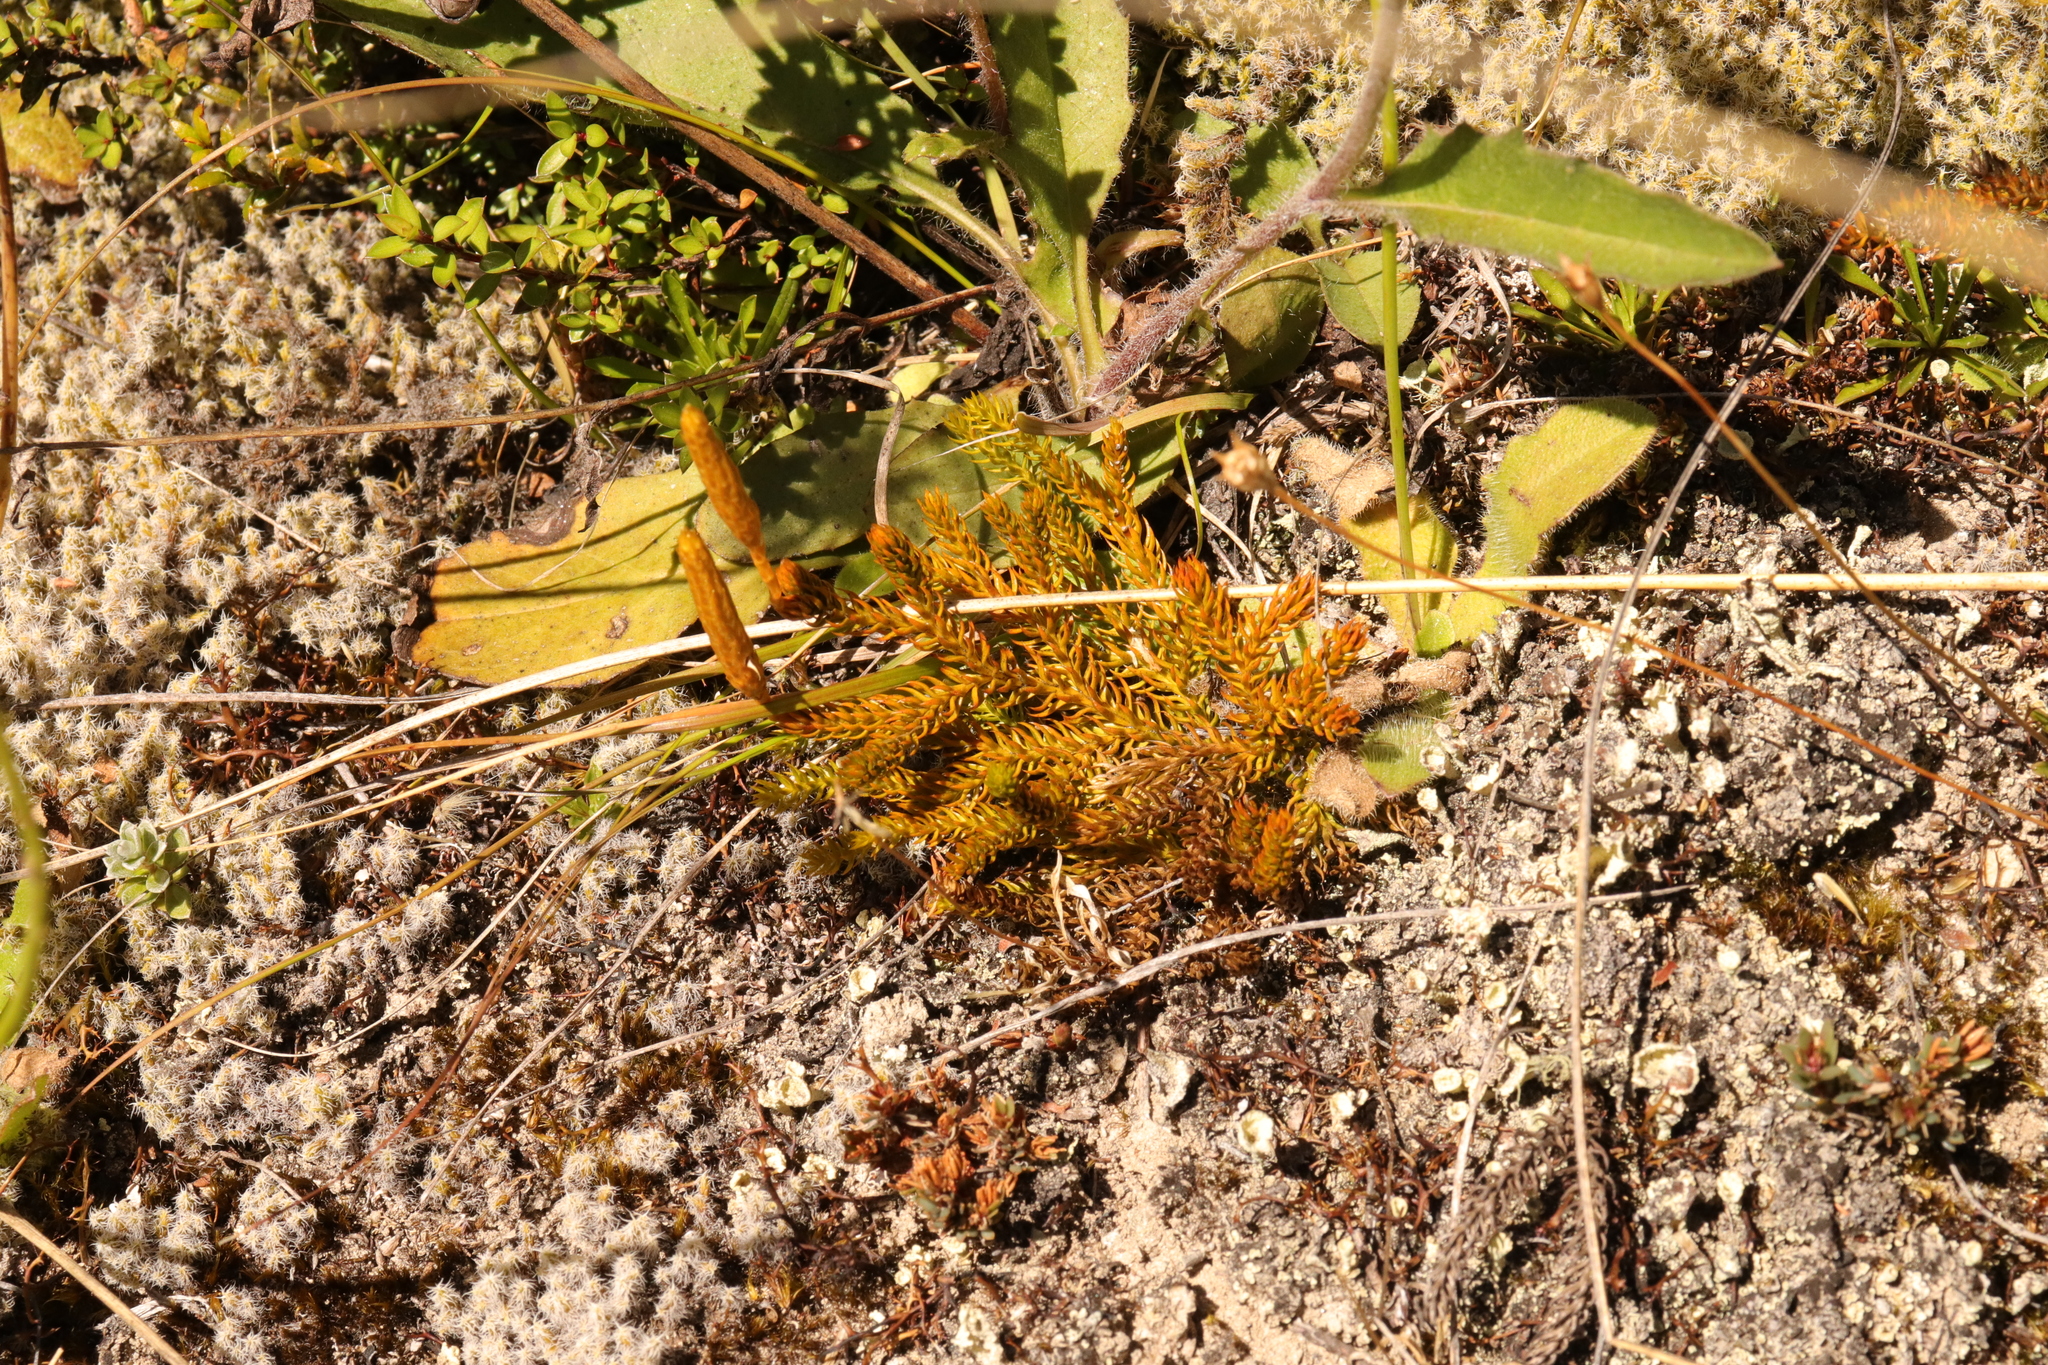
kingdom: Plantae
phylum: Tracheophyta
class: Lycopodiopsida
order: Lycopodiales
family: Lycopodiaceae
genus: Austrolycopodium
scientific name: Austrolycopodium fastigiatum
